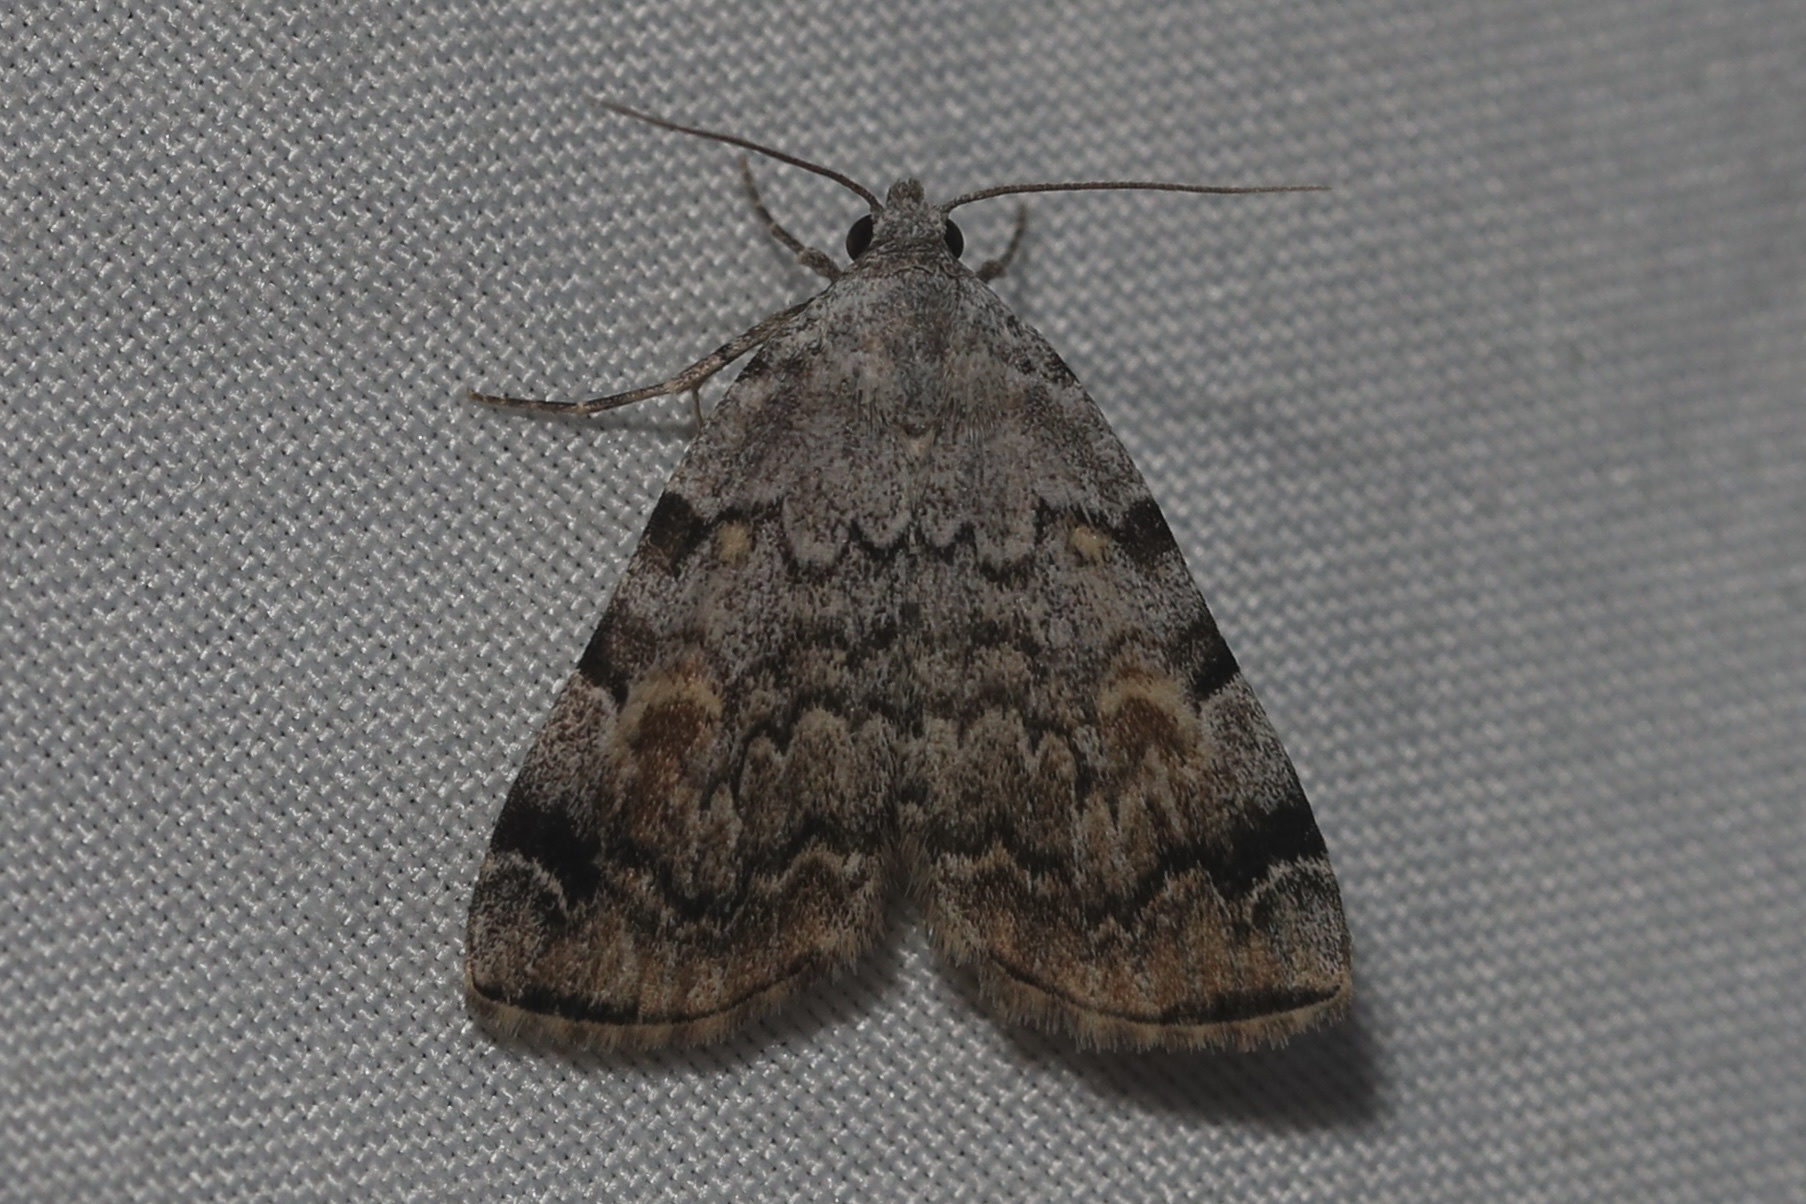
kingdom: Animalia
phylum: Arthropoda
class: Insecta
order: Lepidoptera
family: Erebidae
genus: Idia
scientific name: Idia americalis
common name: American idia moth
